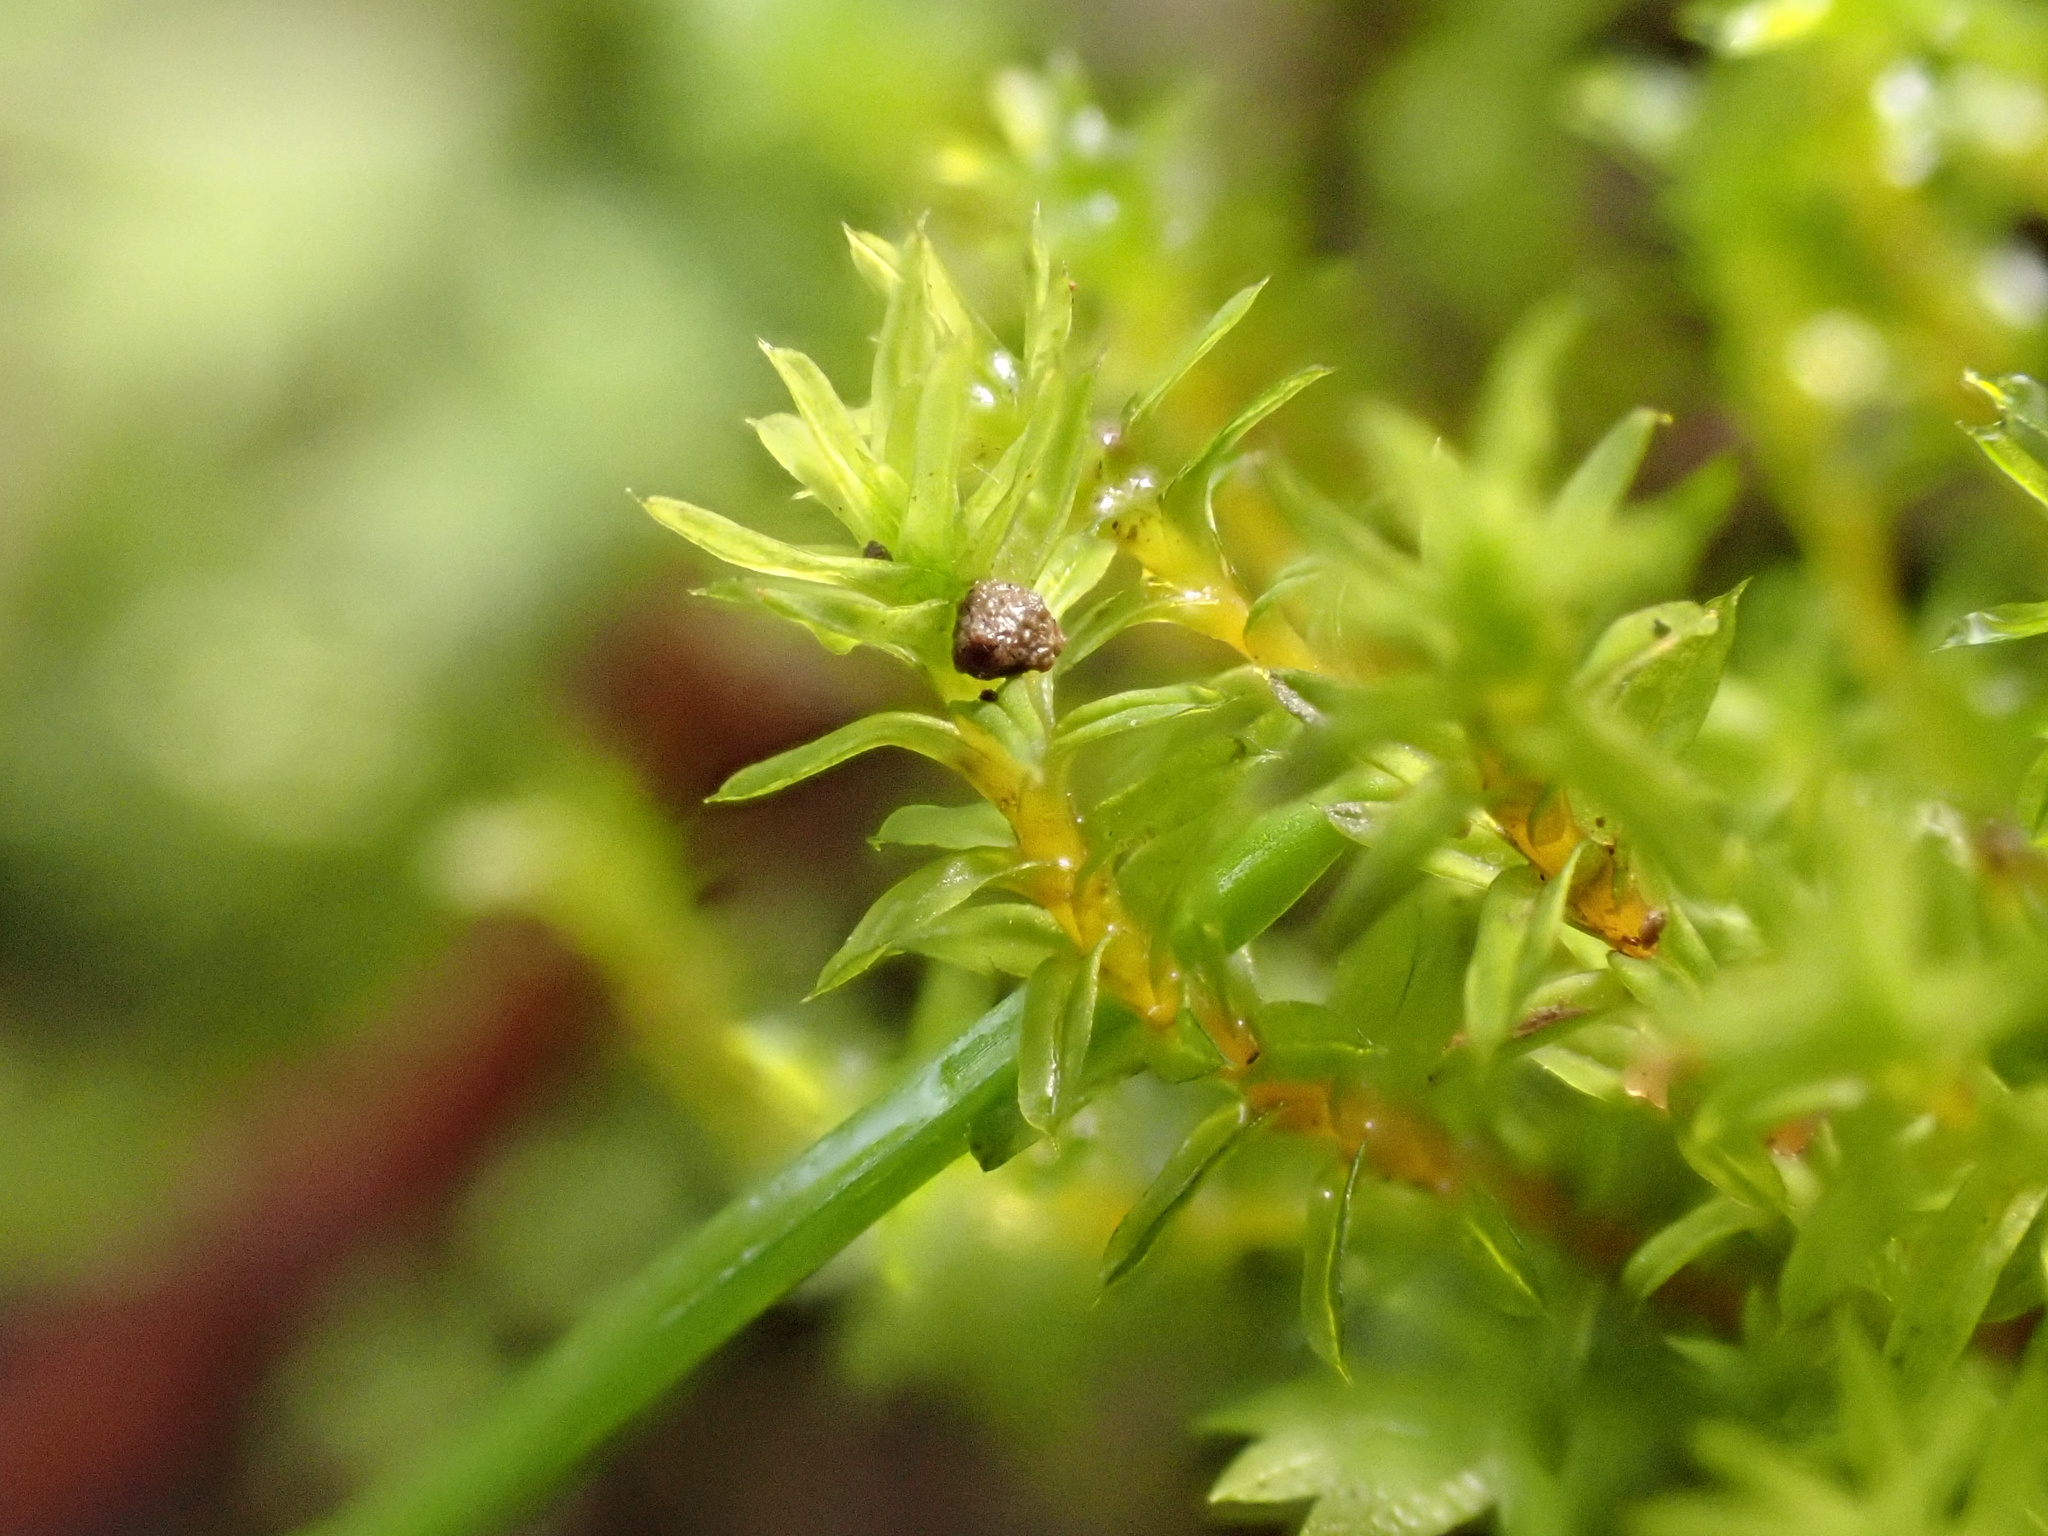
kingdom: Plantae
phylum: Bryophyta
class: Bryopsida
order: Pottiales
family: Pottiaceae
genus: Barbula
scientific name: Barbula unguiculata
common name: Prickly beard moss
